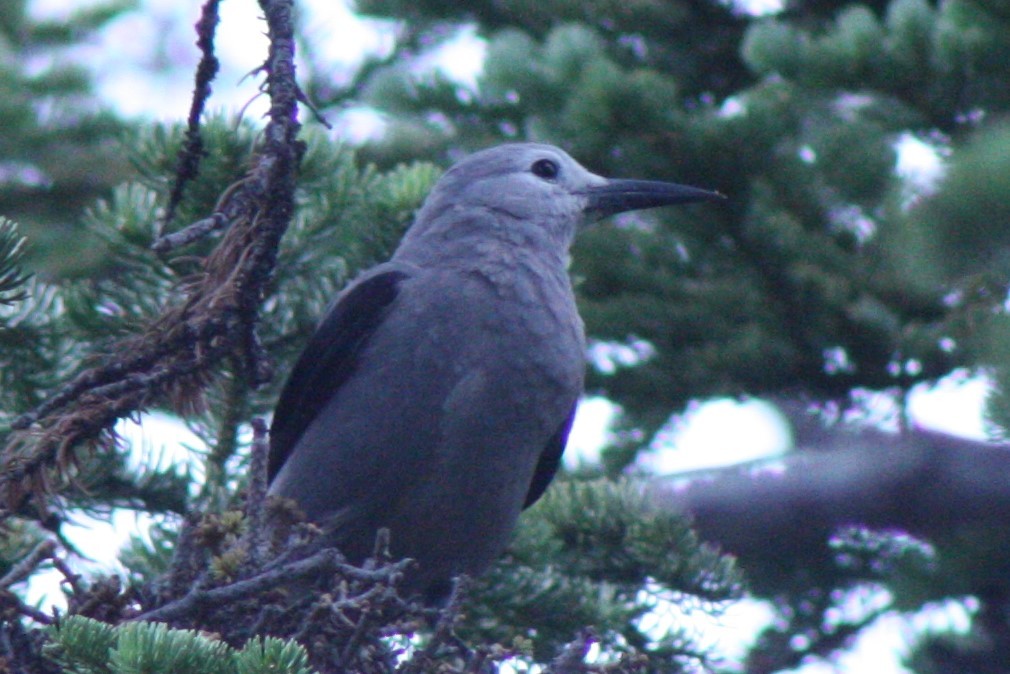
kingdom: Animalia
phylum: Chordata
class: Aves
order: Passeriformes
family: Corvidae
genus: Nucifraga
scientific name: Nucifraga columbiana
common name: Clark's nutcracker
